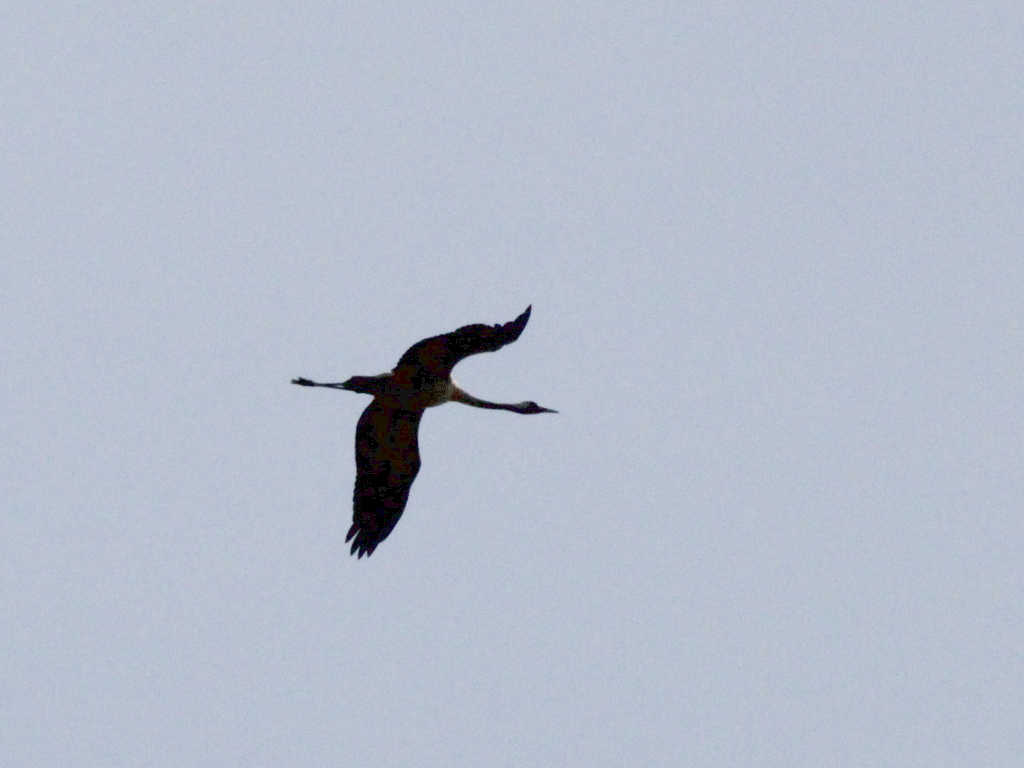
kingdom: Animalia
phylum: Chordata
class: Aves
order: Gruiformes
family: Gruidae
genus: Grus
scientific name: Grus grus
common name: Common crane
